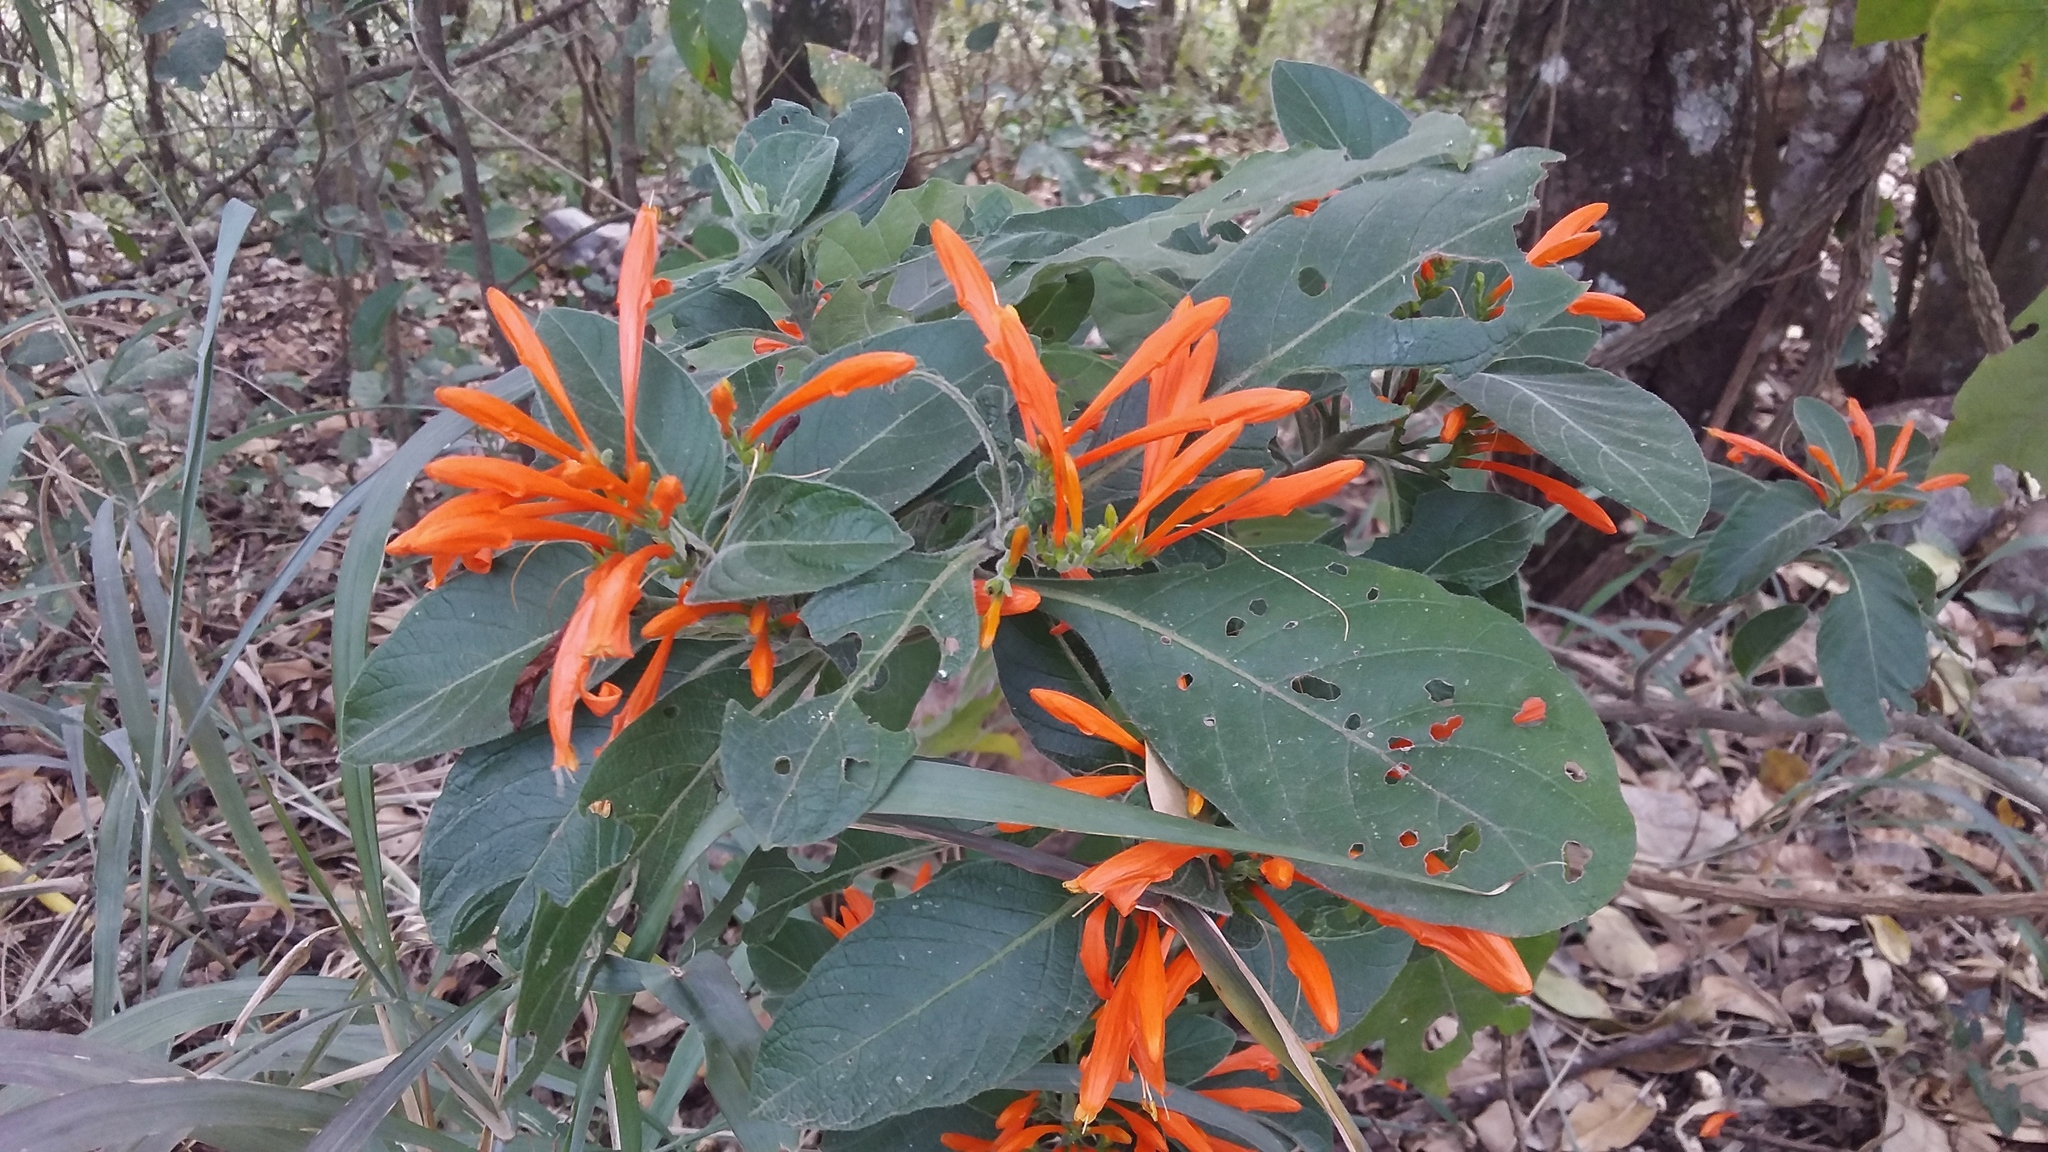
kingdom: Plantae
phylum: Tracheophyta
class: Magnoliopsida
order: Lamiales
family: Acanthaceae
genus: Justicia
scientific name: Justicia spicigera
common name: Mohintli
